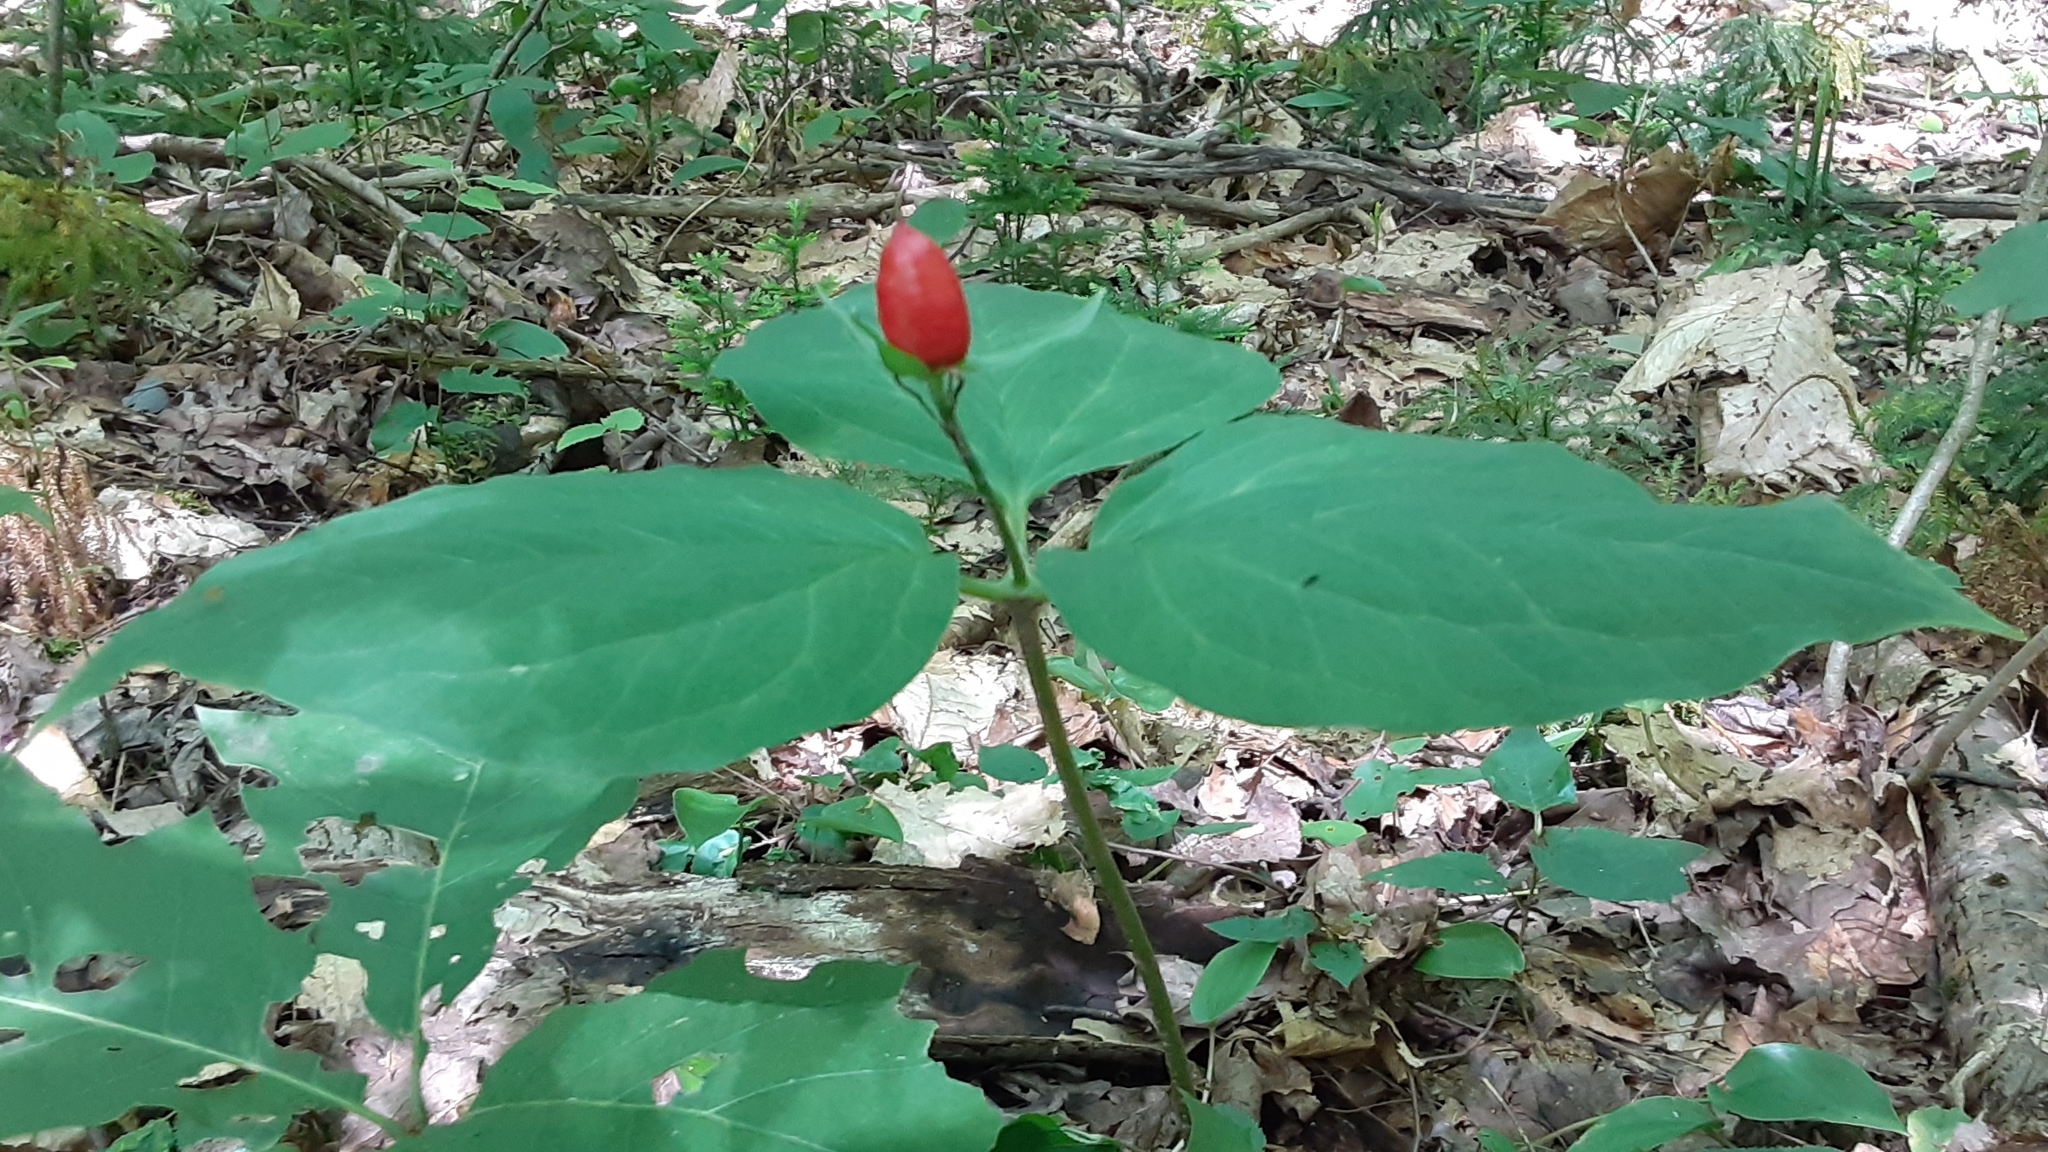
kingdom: Plantae
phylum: Tracheophyta
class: Liliopsida
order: Liliales
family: Melanthiaceae
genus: Trillium
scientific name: Trillium undulatum
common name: Paint trillium
